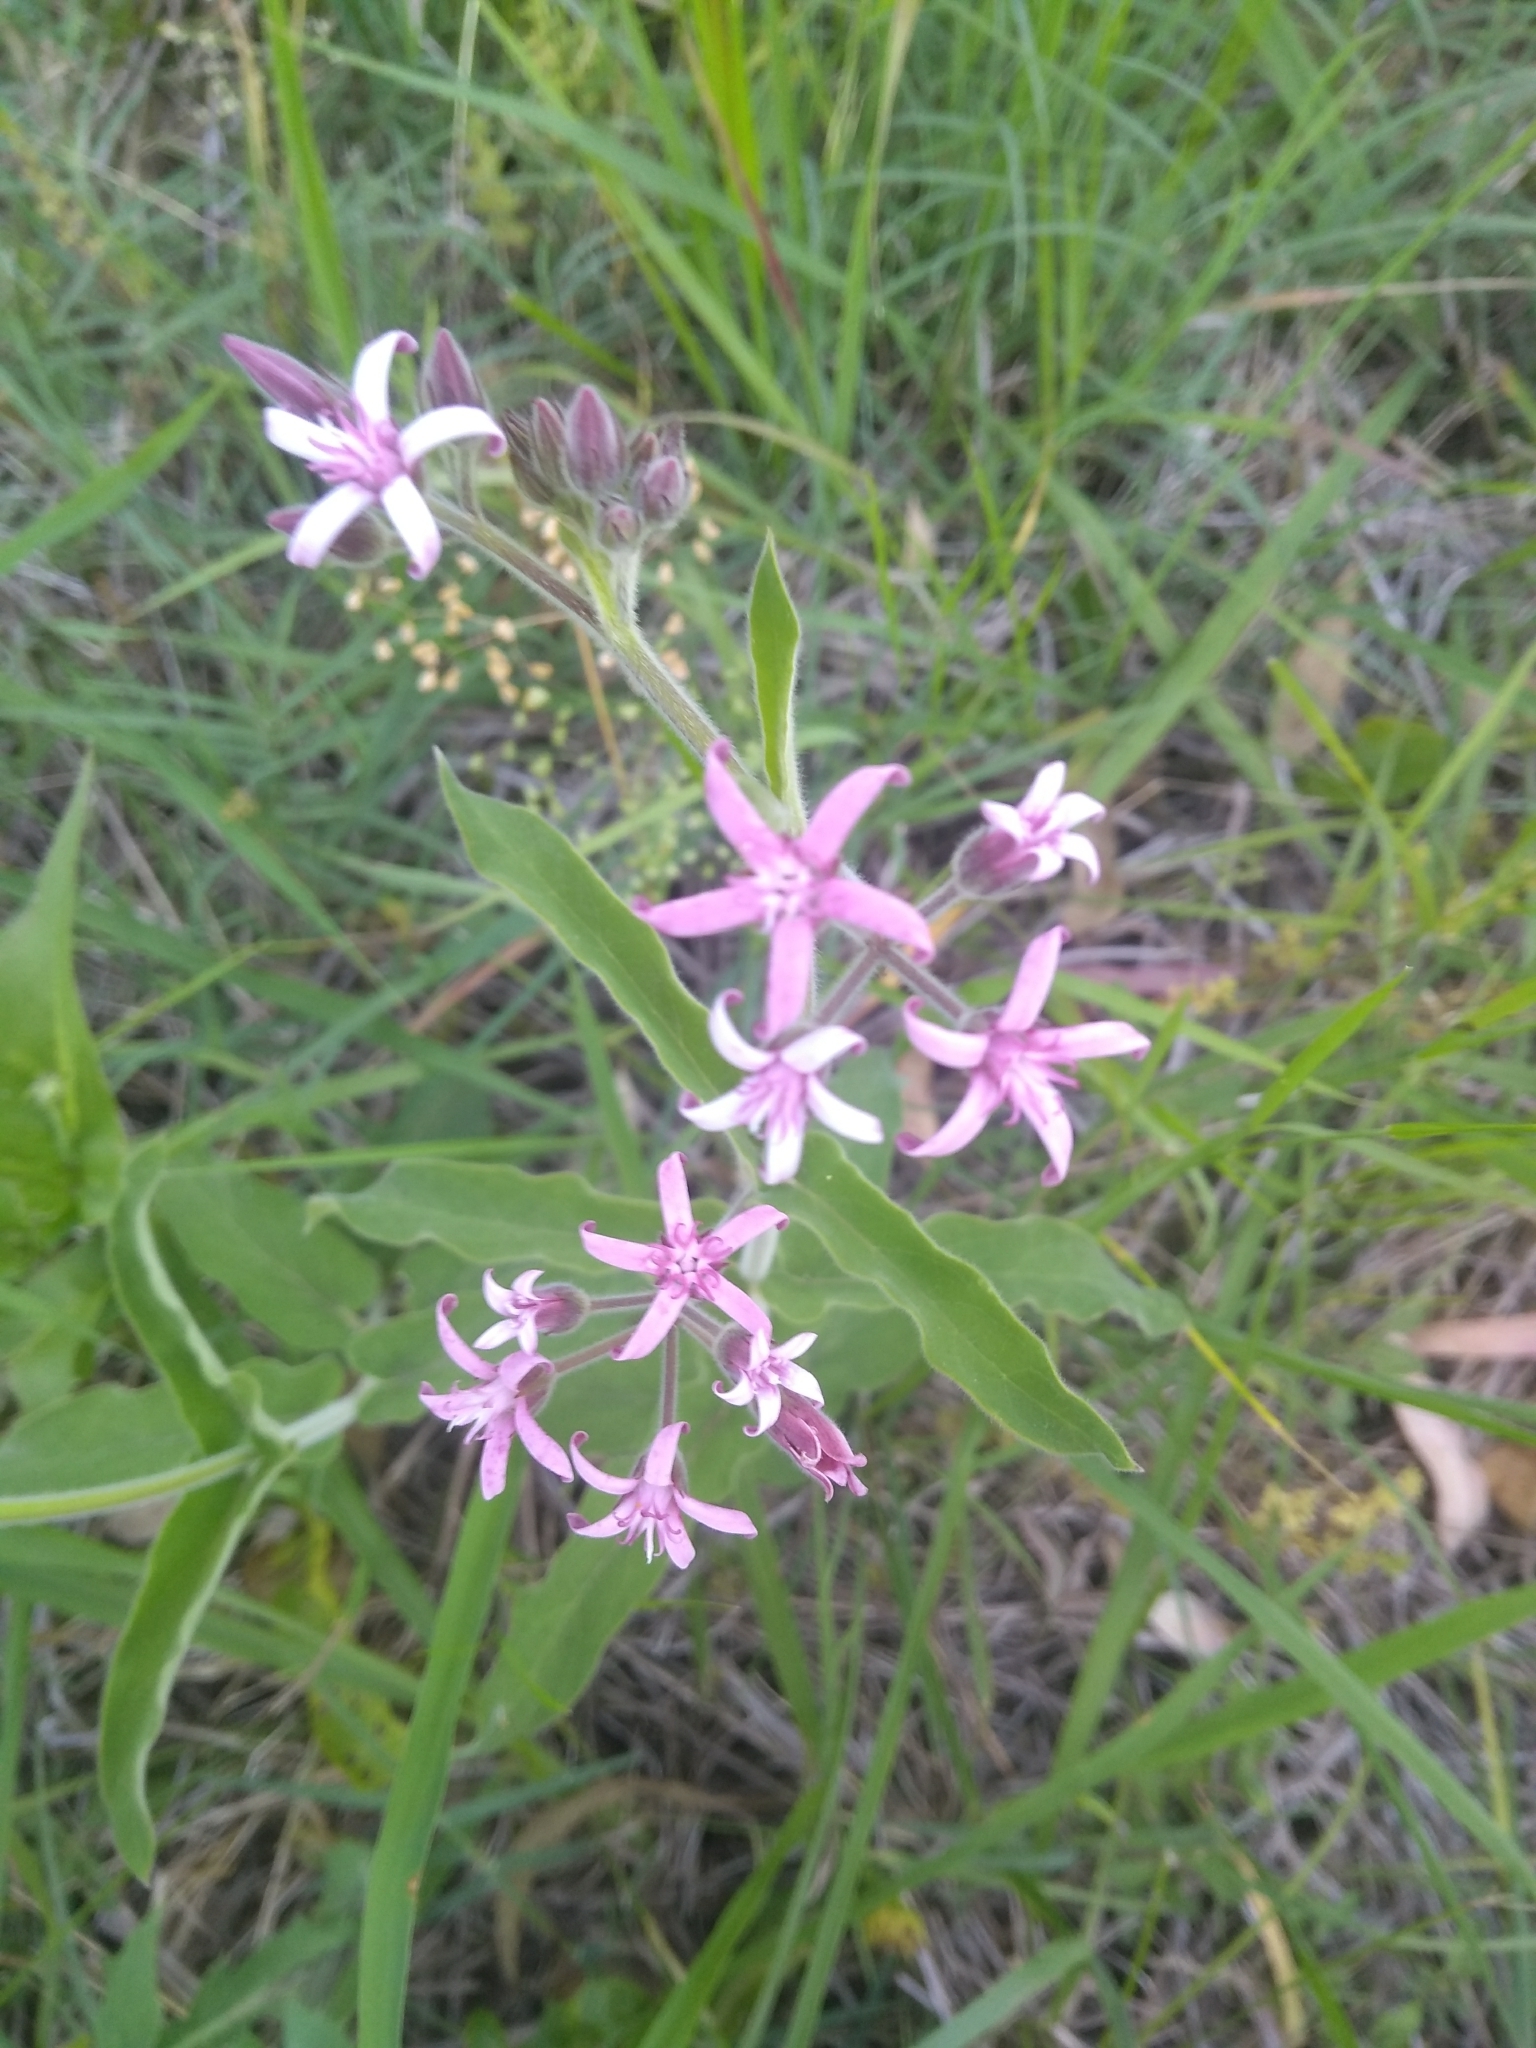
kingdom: Plantae
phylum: Tracheophyta
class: Magnoliopsida
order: Gentianales
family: Apocynaceae
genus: Oxypetalum
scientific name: Oxypetalum solanoides
